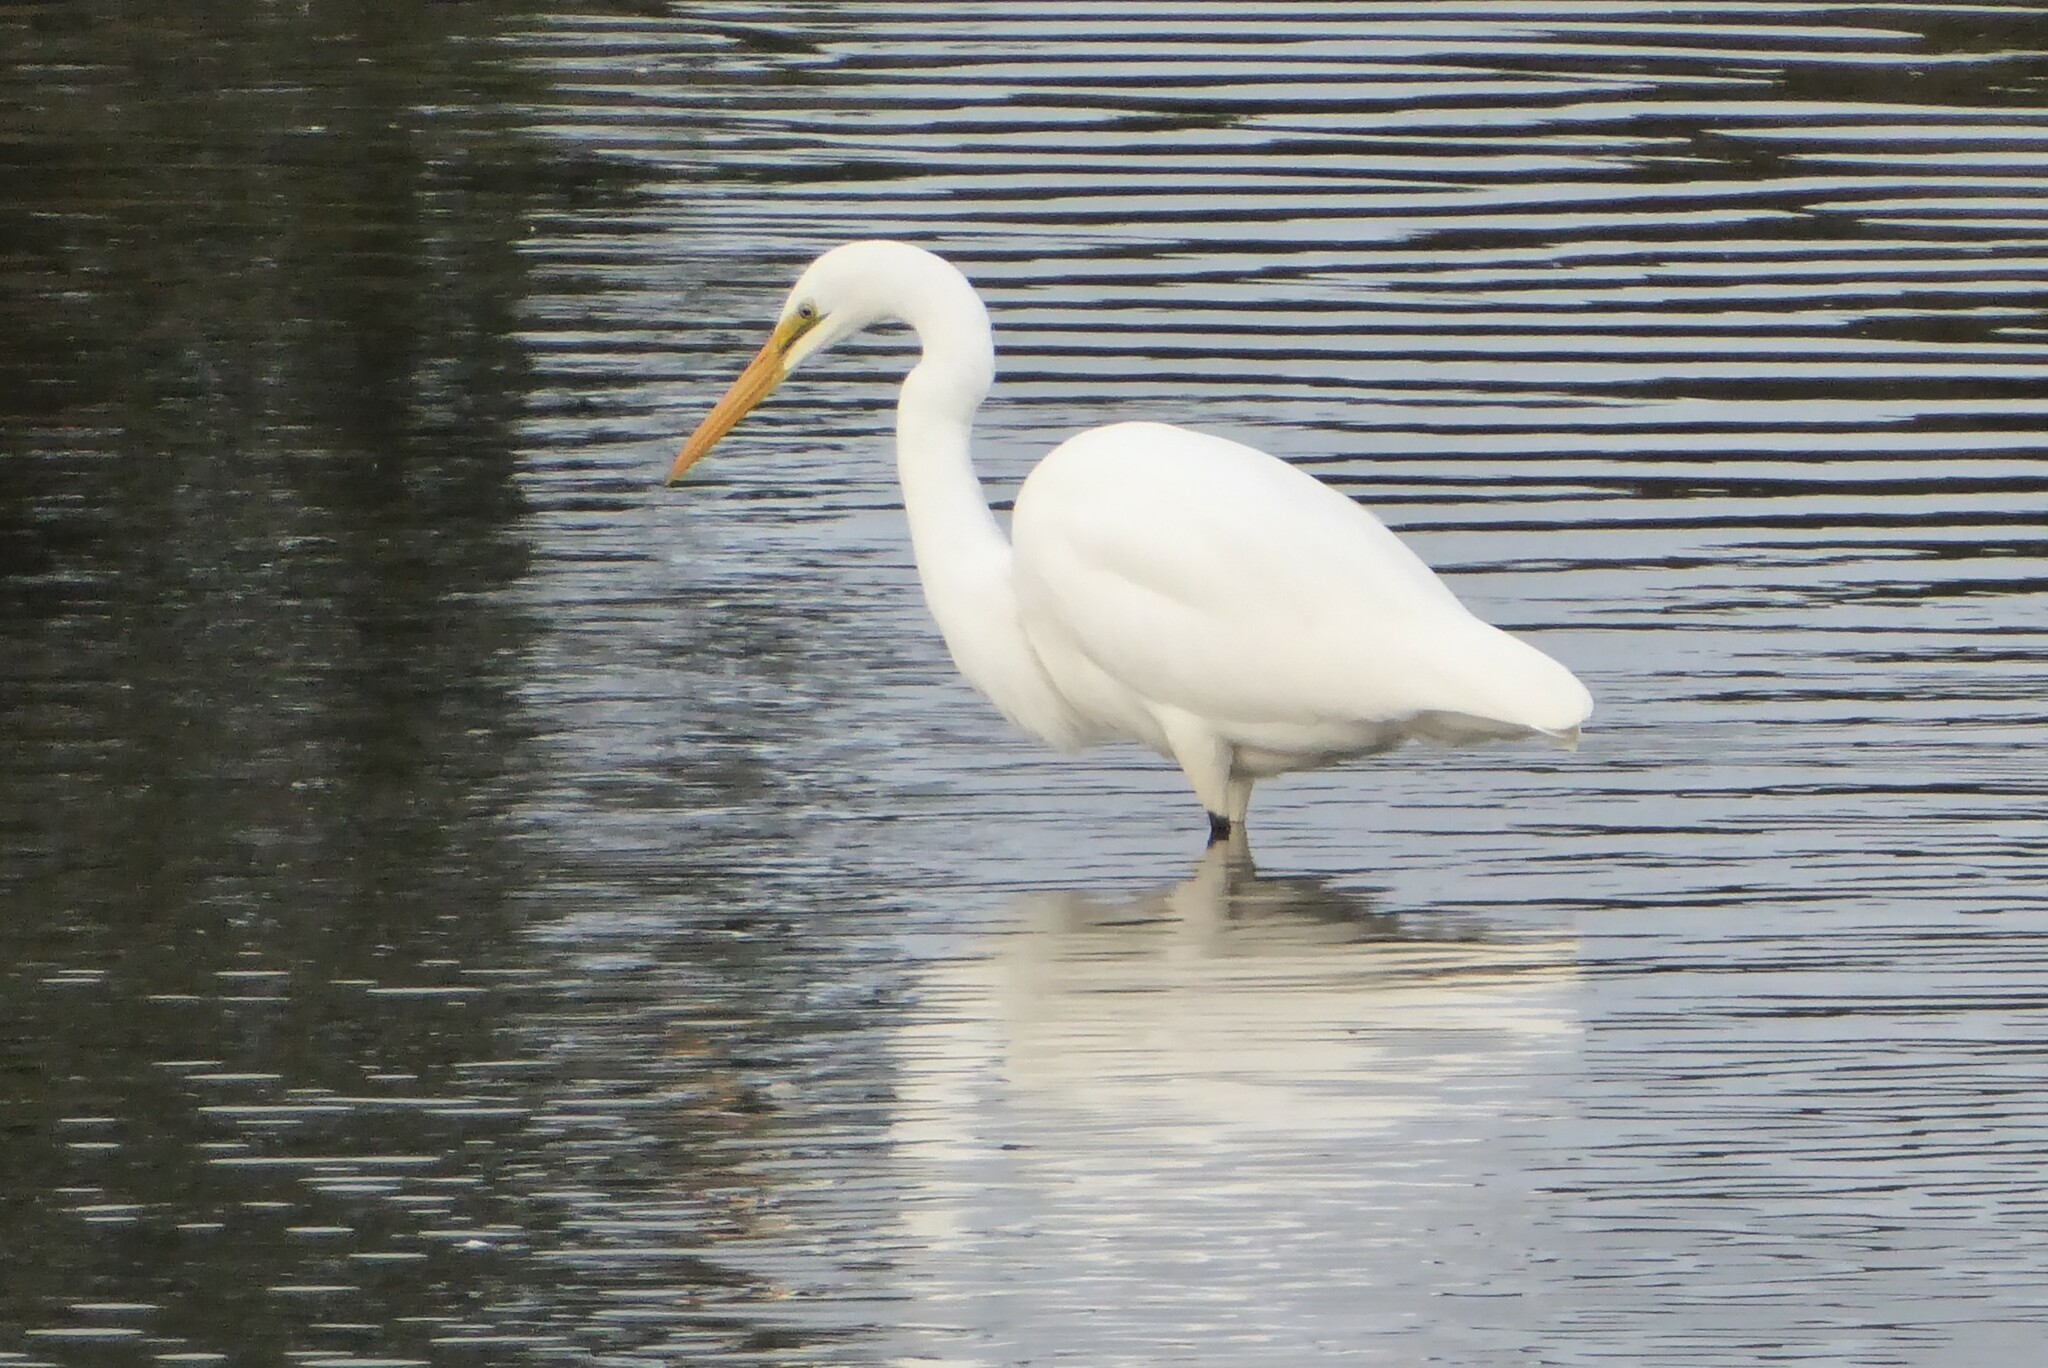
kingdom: Animalia
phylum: Chordata
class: Aves
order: Pelecaniformes
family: Ardeidae
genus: Ardea
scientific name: Ardea alba
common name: Great egret
